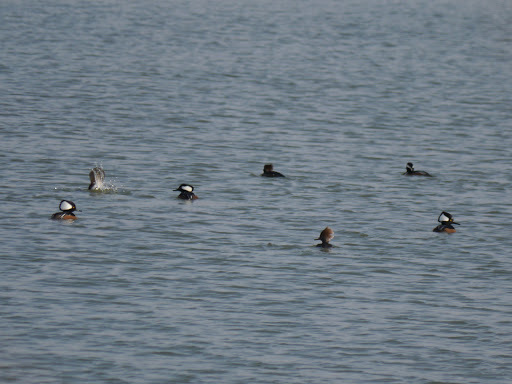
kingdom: Animalia
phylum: Chordata
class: Aves
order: Anseriformes
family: Anatidae
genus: Lophodytes
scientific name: Lophodytes cucullatus
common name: Hooded merganser
